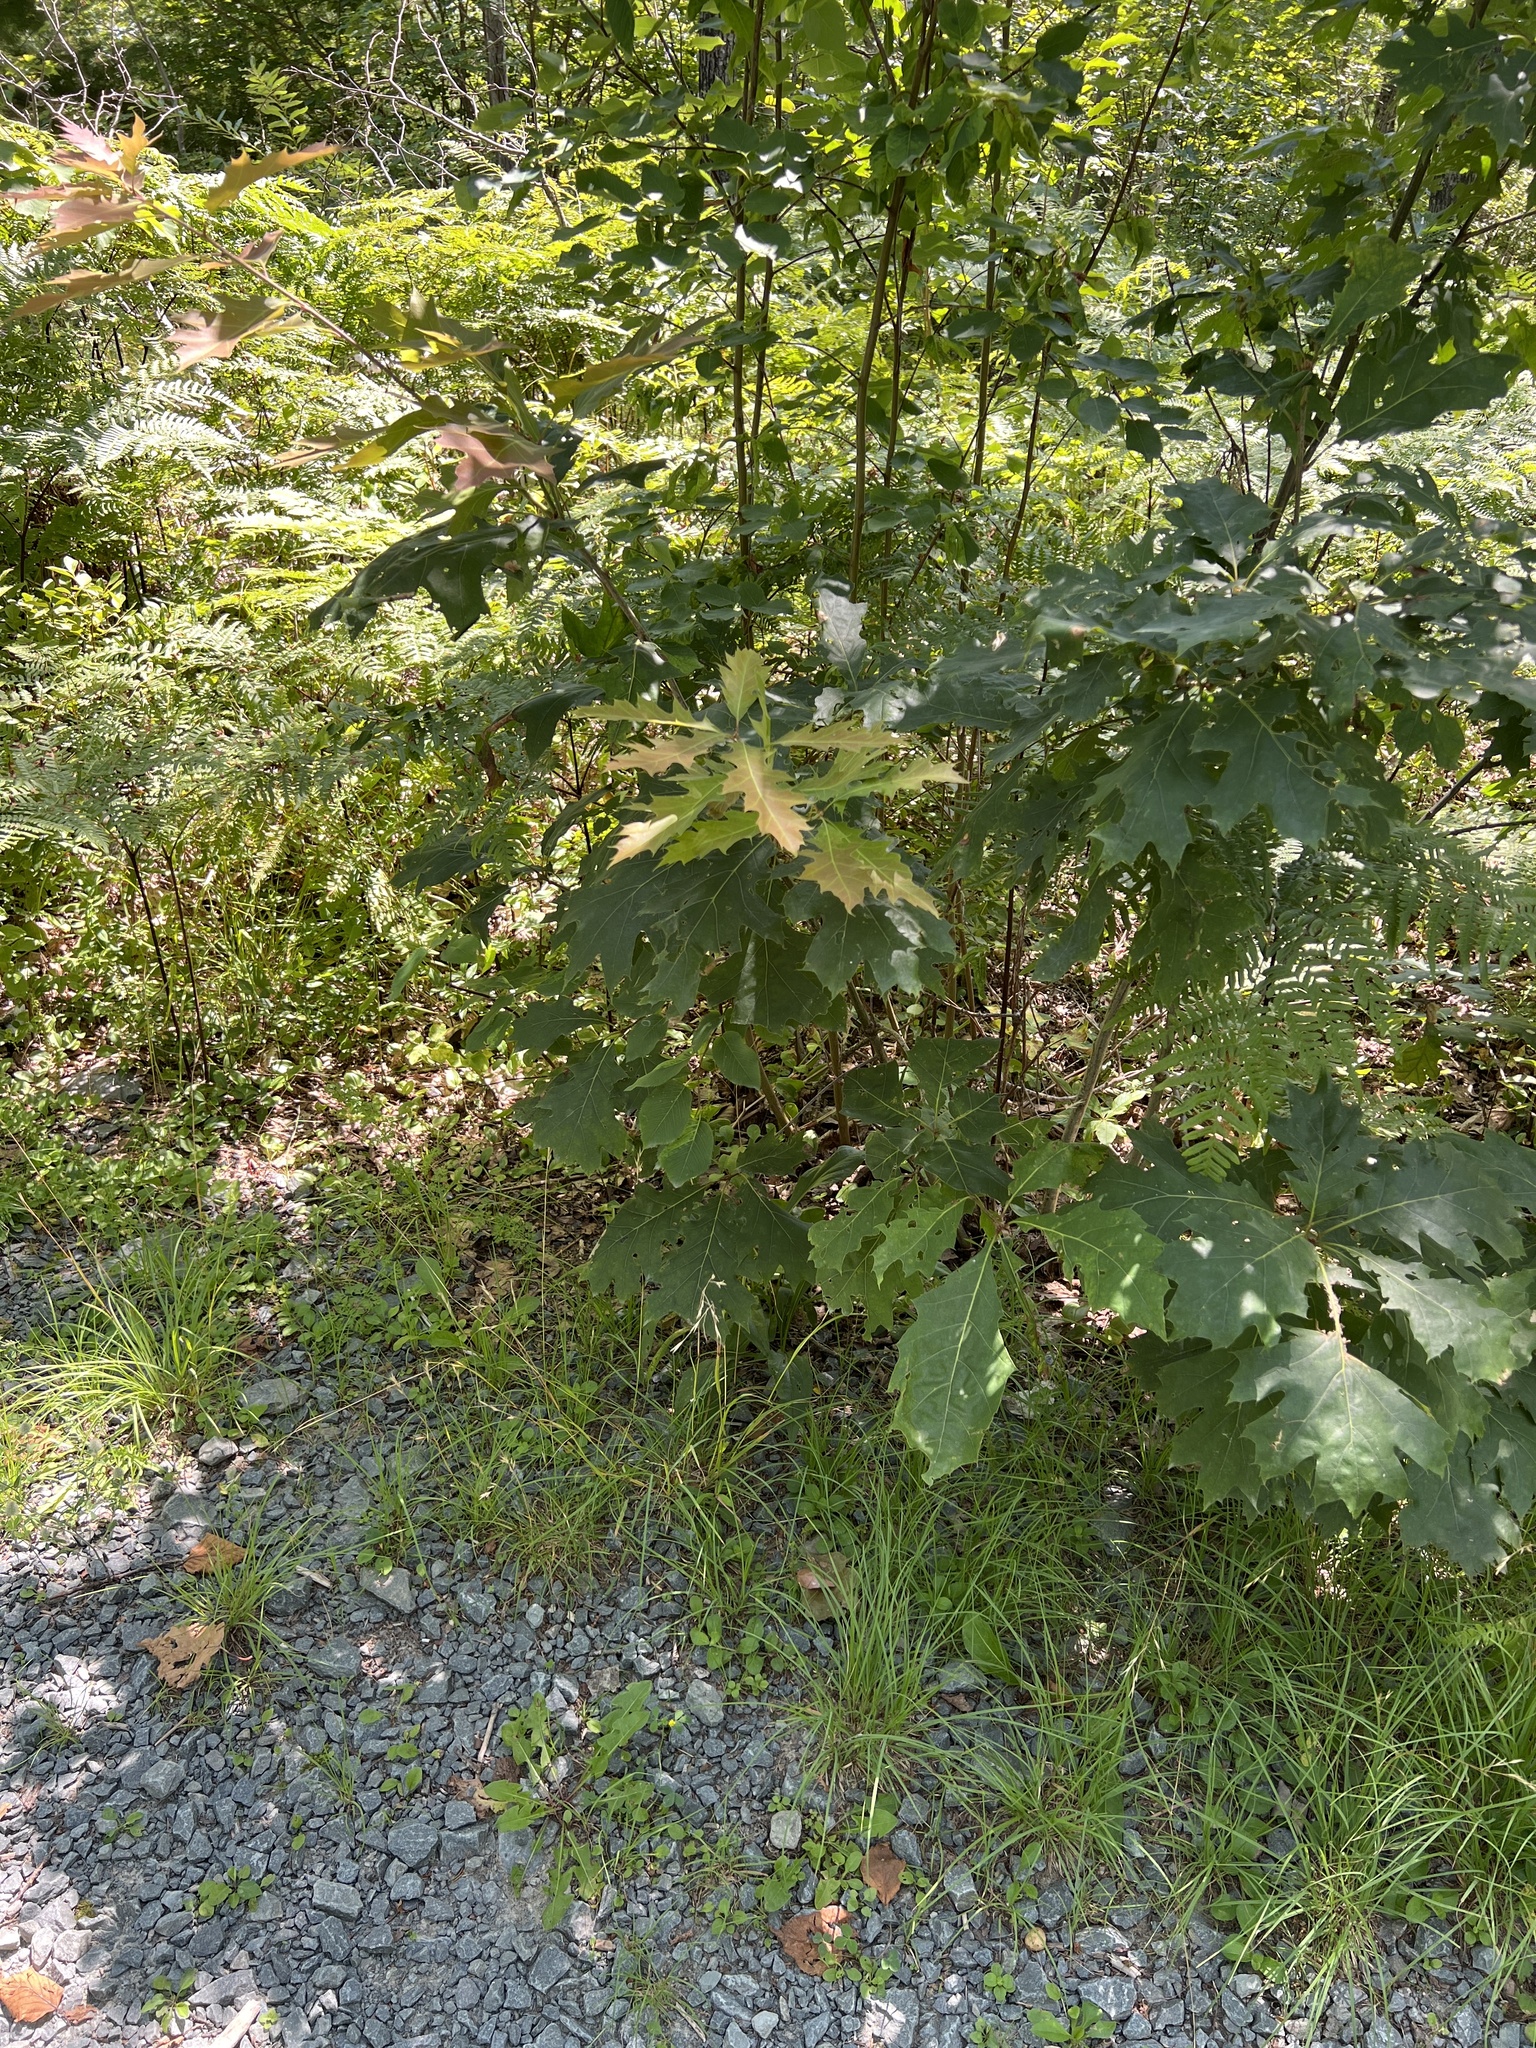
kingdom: Plantae
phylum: Tracheophyta
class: Magnoliopsida
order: Fagales
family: Fagaceae
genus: Quercus
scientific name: Quercus rubra
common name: Red oak
